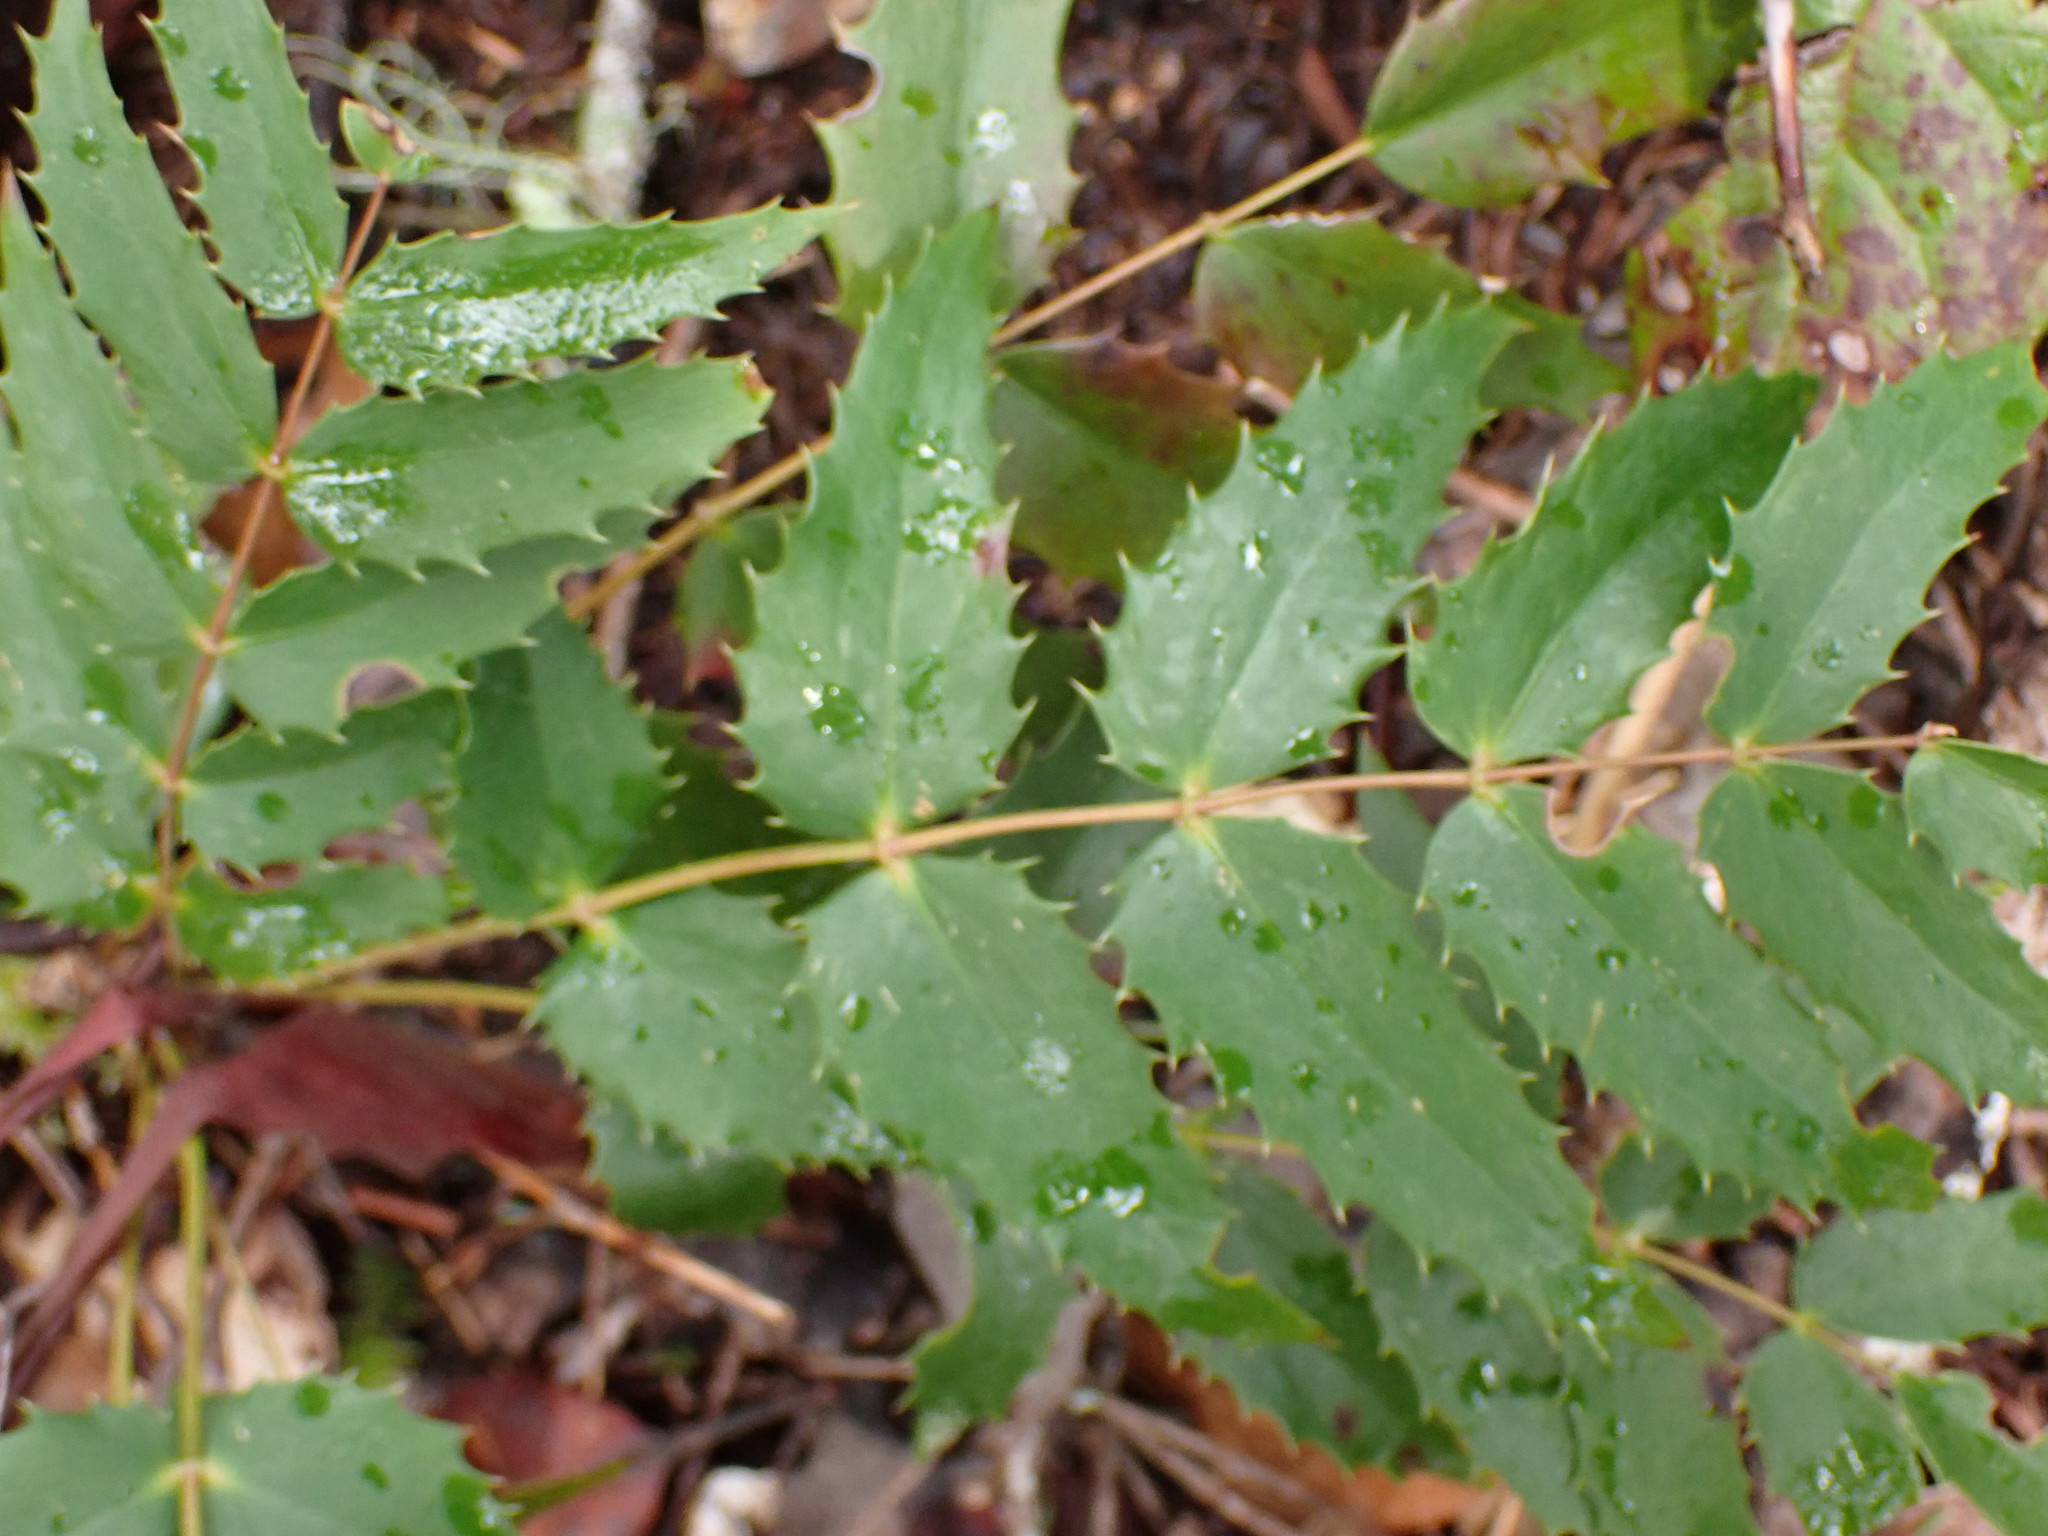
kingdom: Plantae
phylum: Tracheophyta
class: Magnoliopsida
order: Ranunculales
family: Berberidaceae
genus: Mahonia
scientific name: Mahonia nervosa
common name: Cascade oregon-grape
